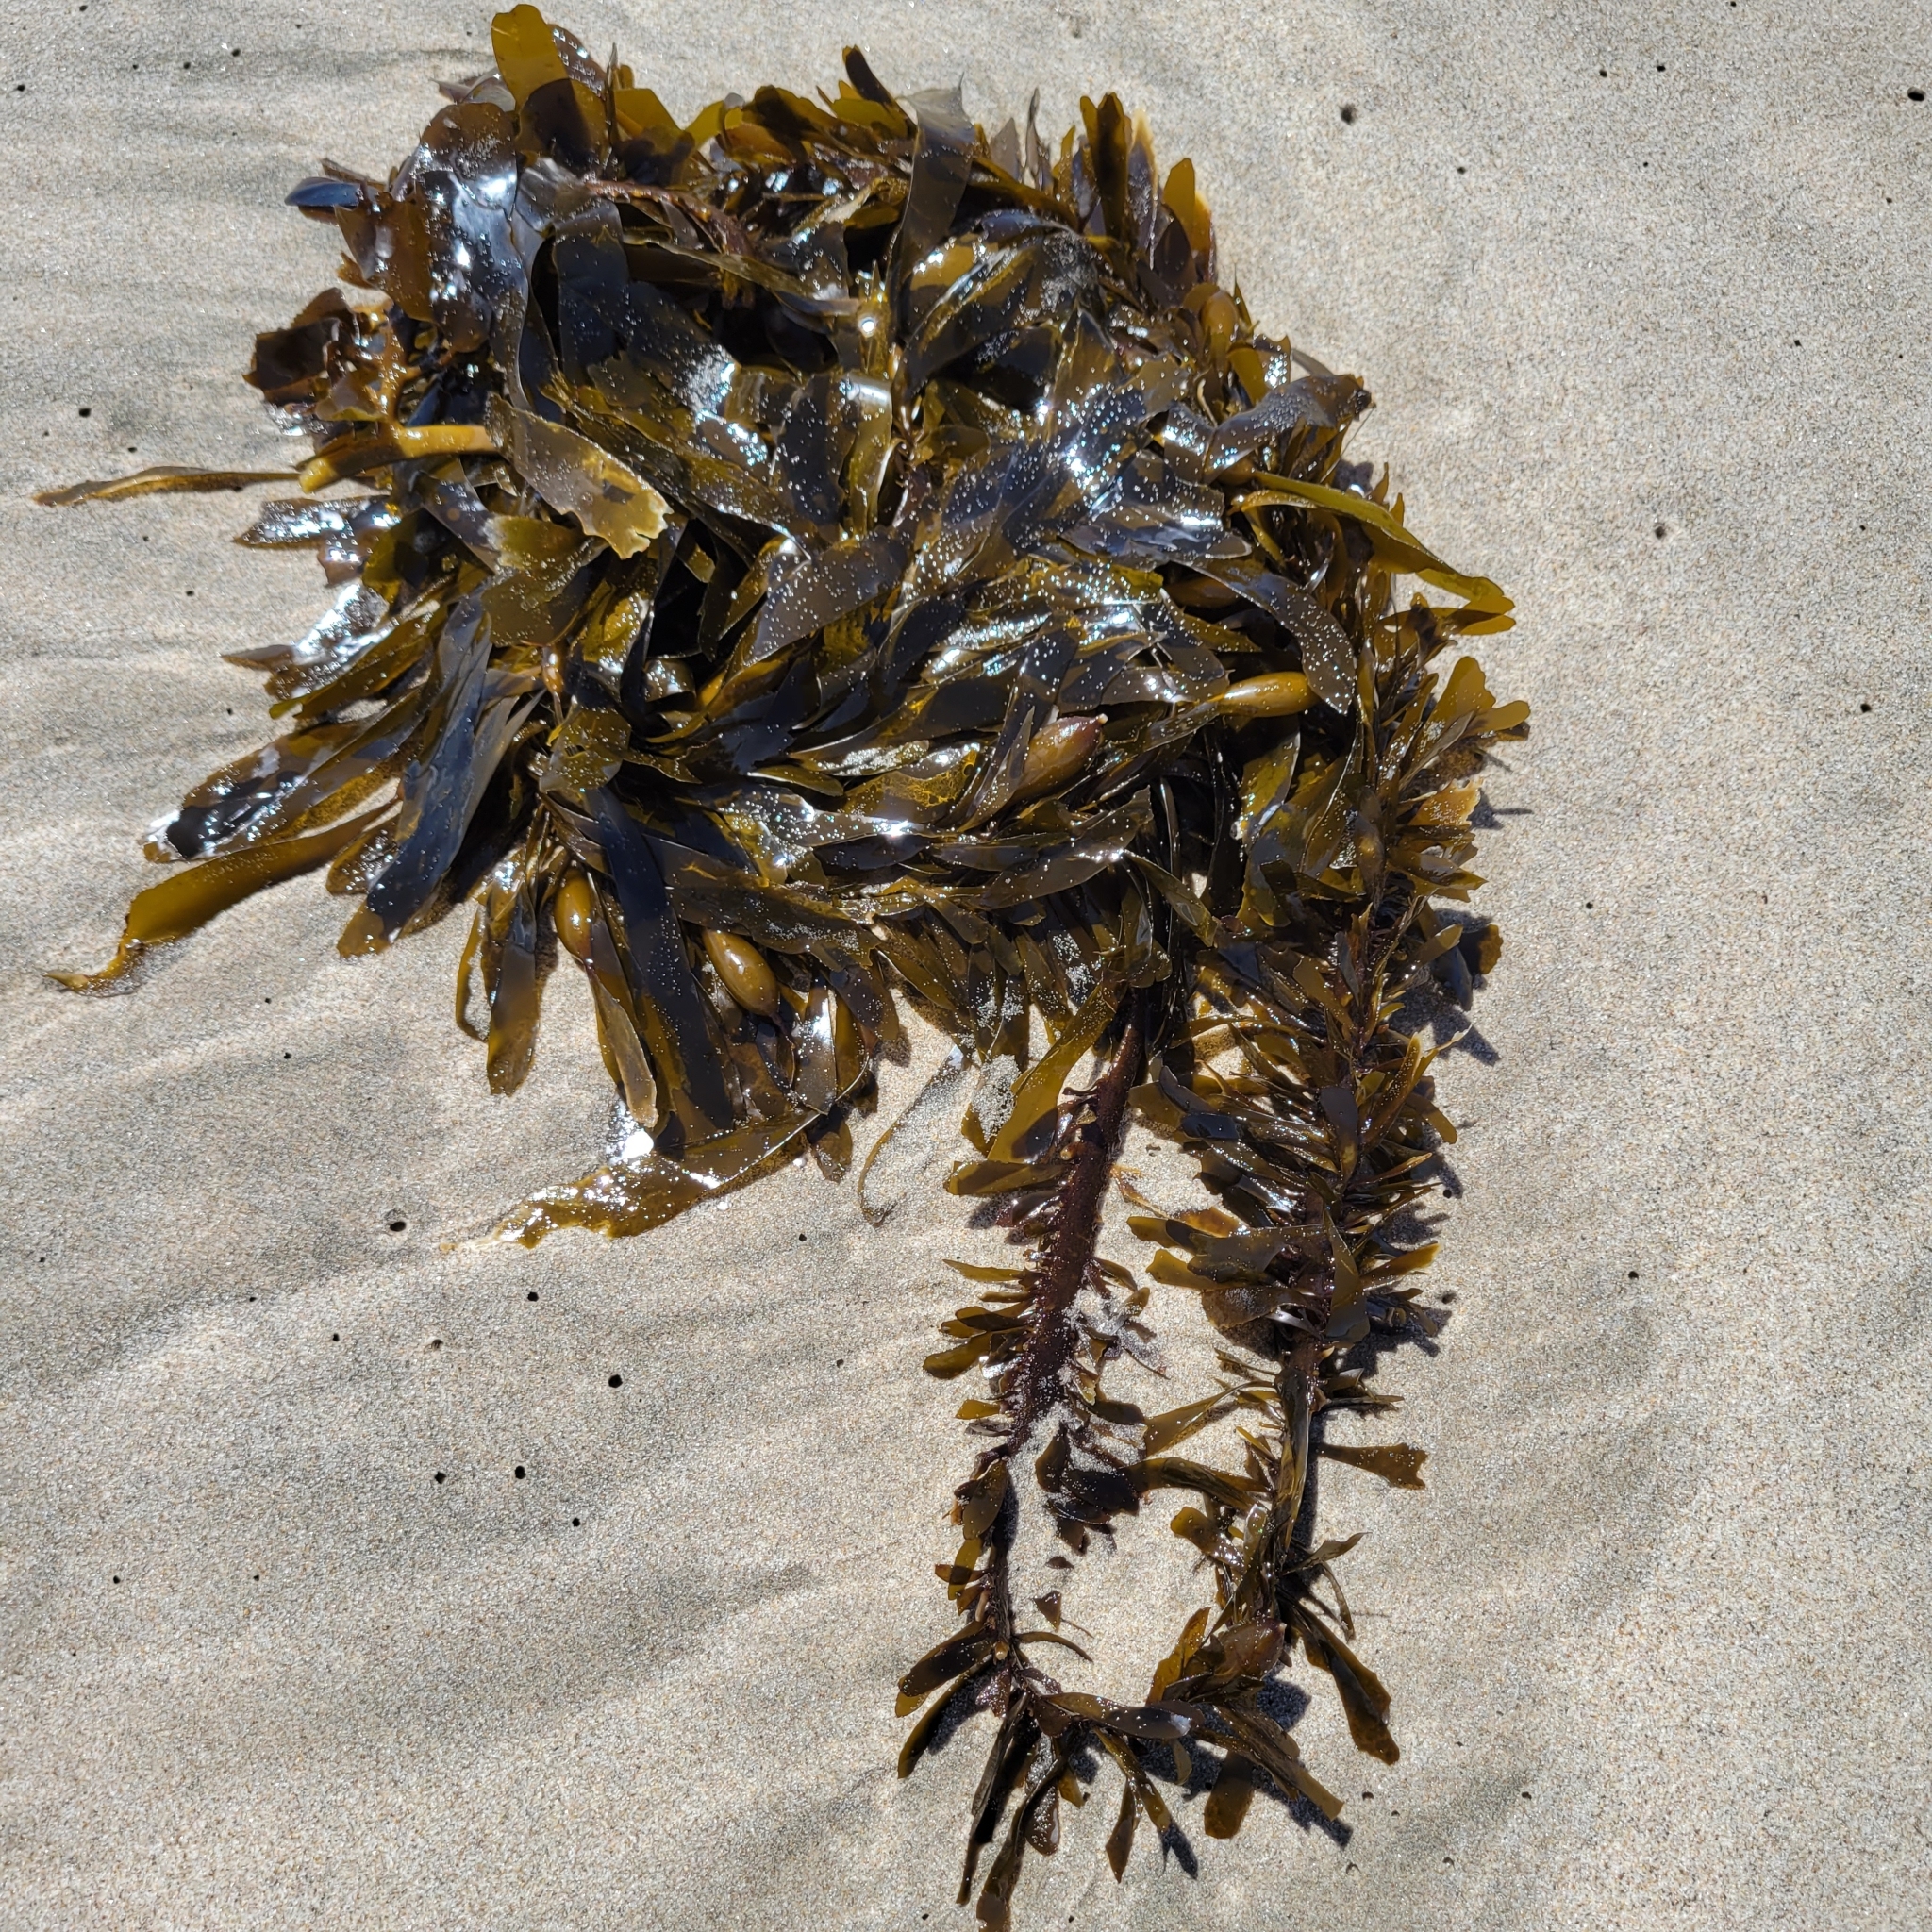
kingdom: Chromista
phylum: Ochrophyta
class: Phaeophyceae
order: Laminariales
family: Lessoniaceae
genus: Egregia
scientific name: Egregia menziesii
